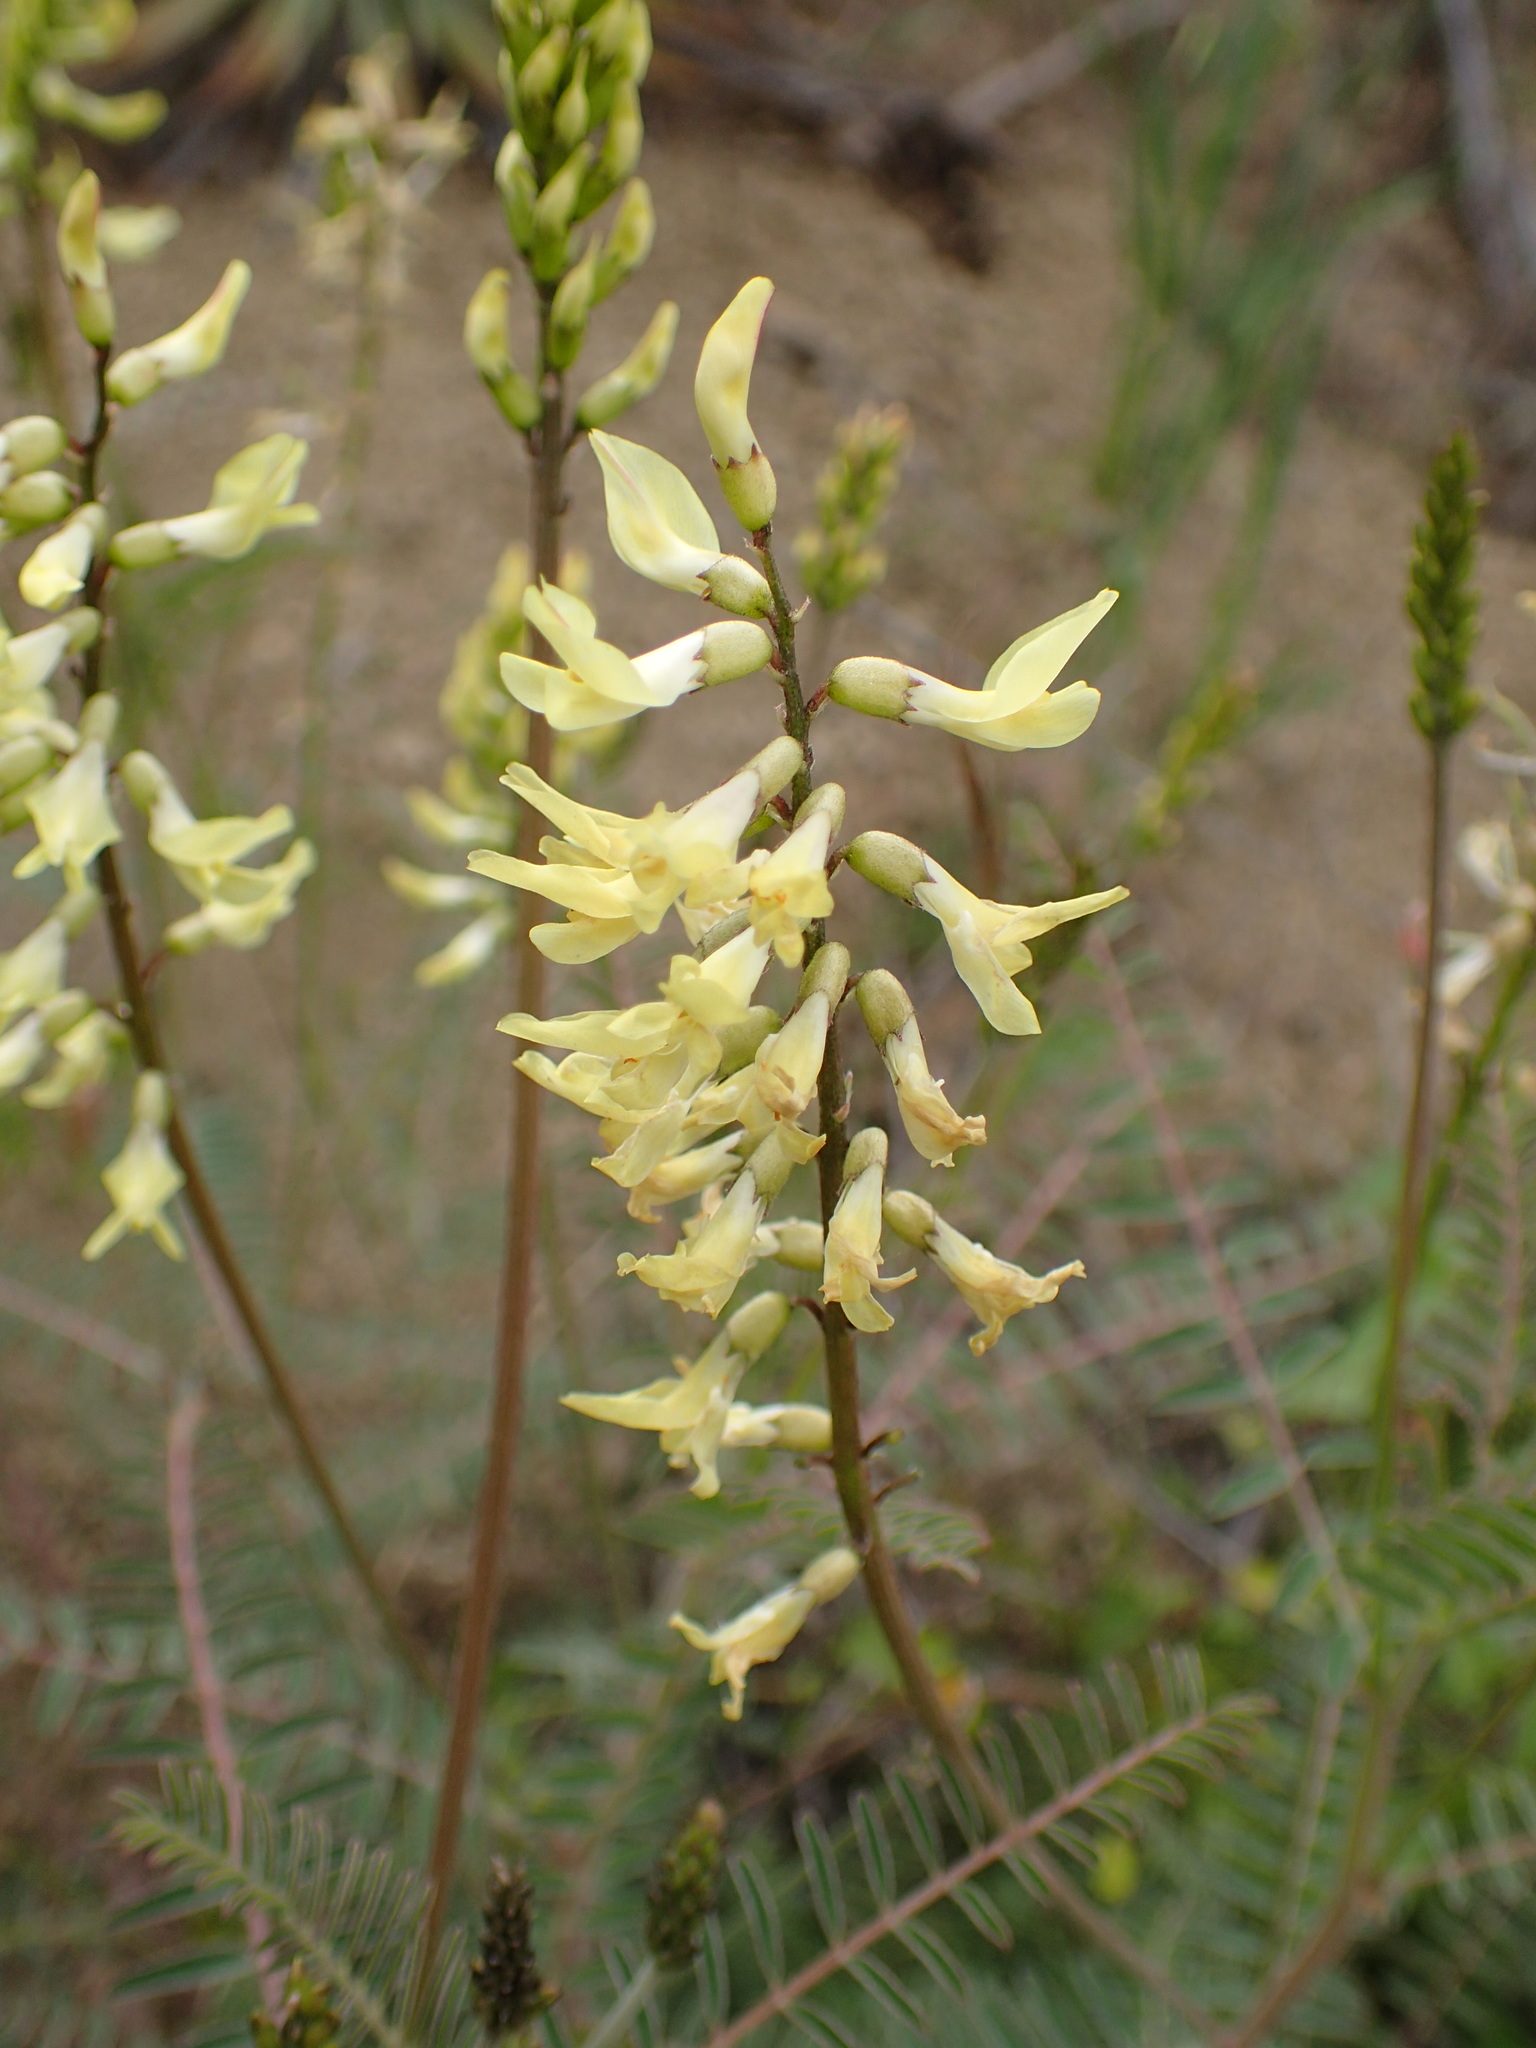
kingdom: Plantae
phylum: Tracheophyta
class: Magnoliopsida
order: Fabales
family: Fabaceae
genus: Astragalus
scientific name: Astragalus trichopodus
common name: Santa barbara milk-vetch
